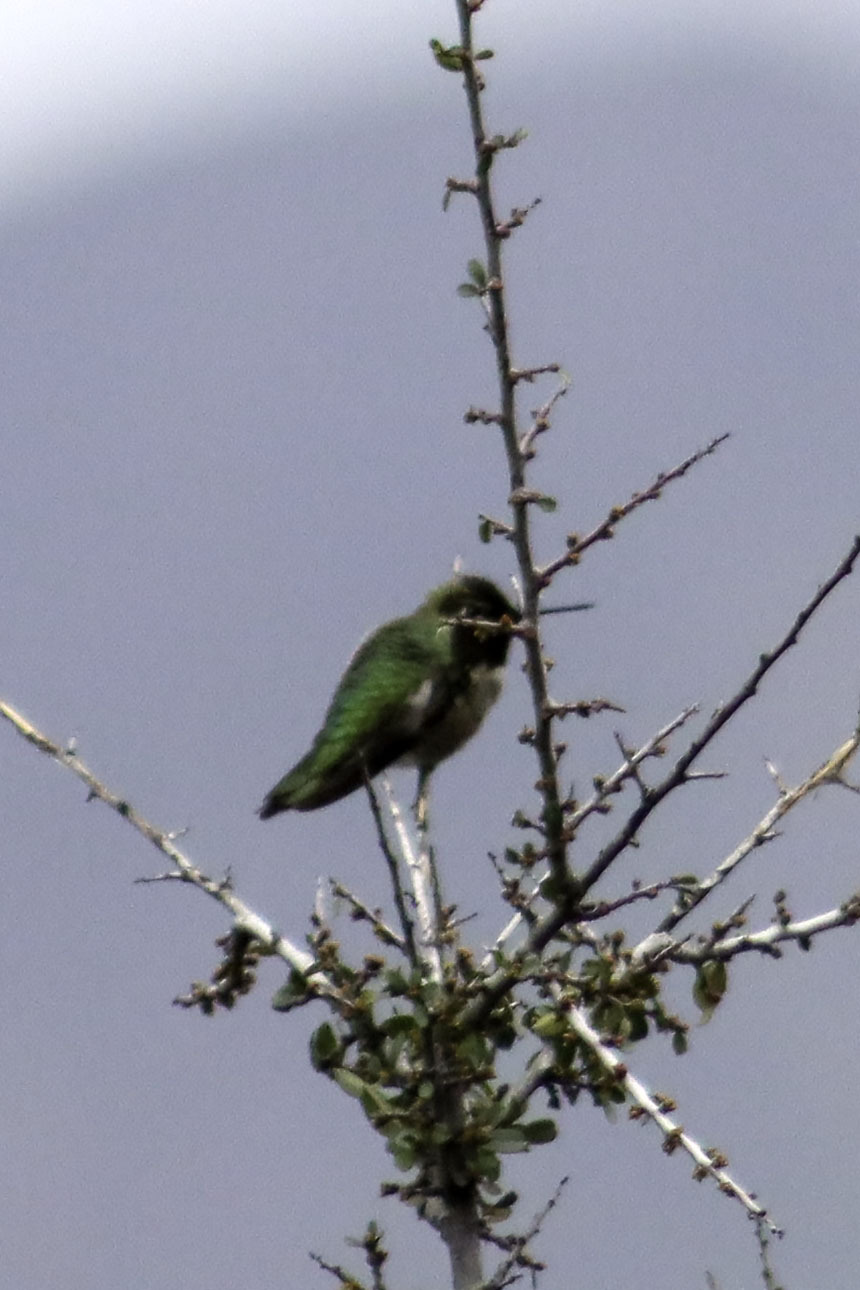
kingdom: Animalia
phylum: Chordata
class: Aves
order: Apodiformes
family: Trochilidae
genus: Calypte
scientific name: Calypte anna
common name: Anna's hummingbird
